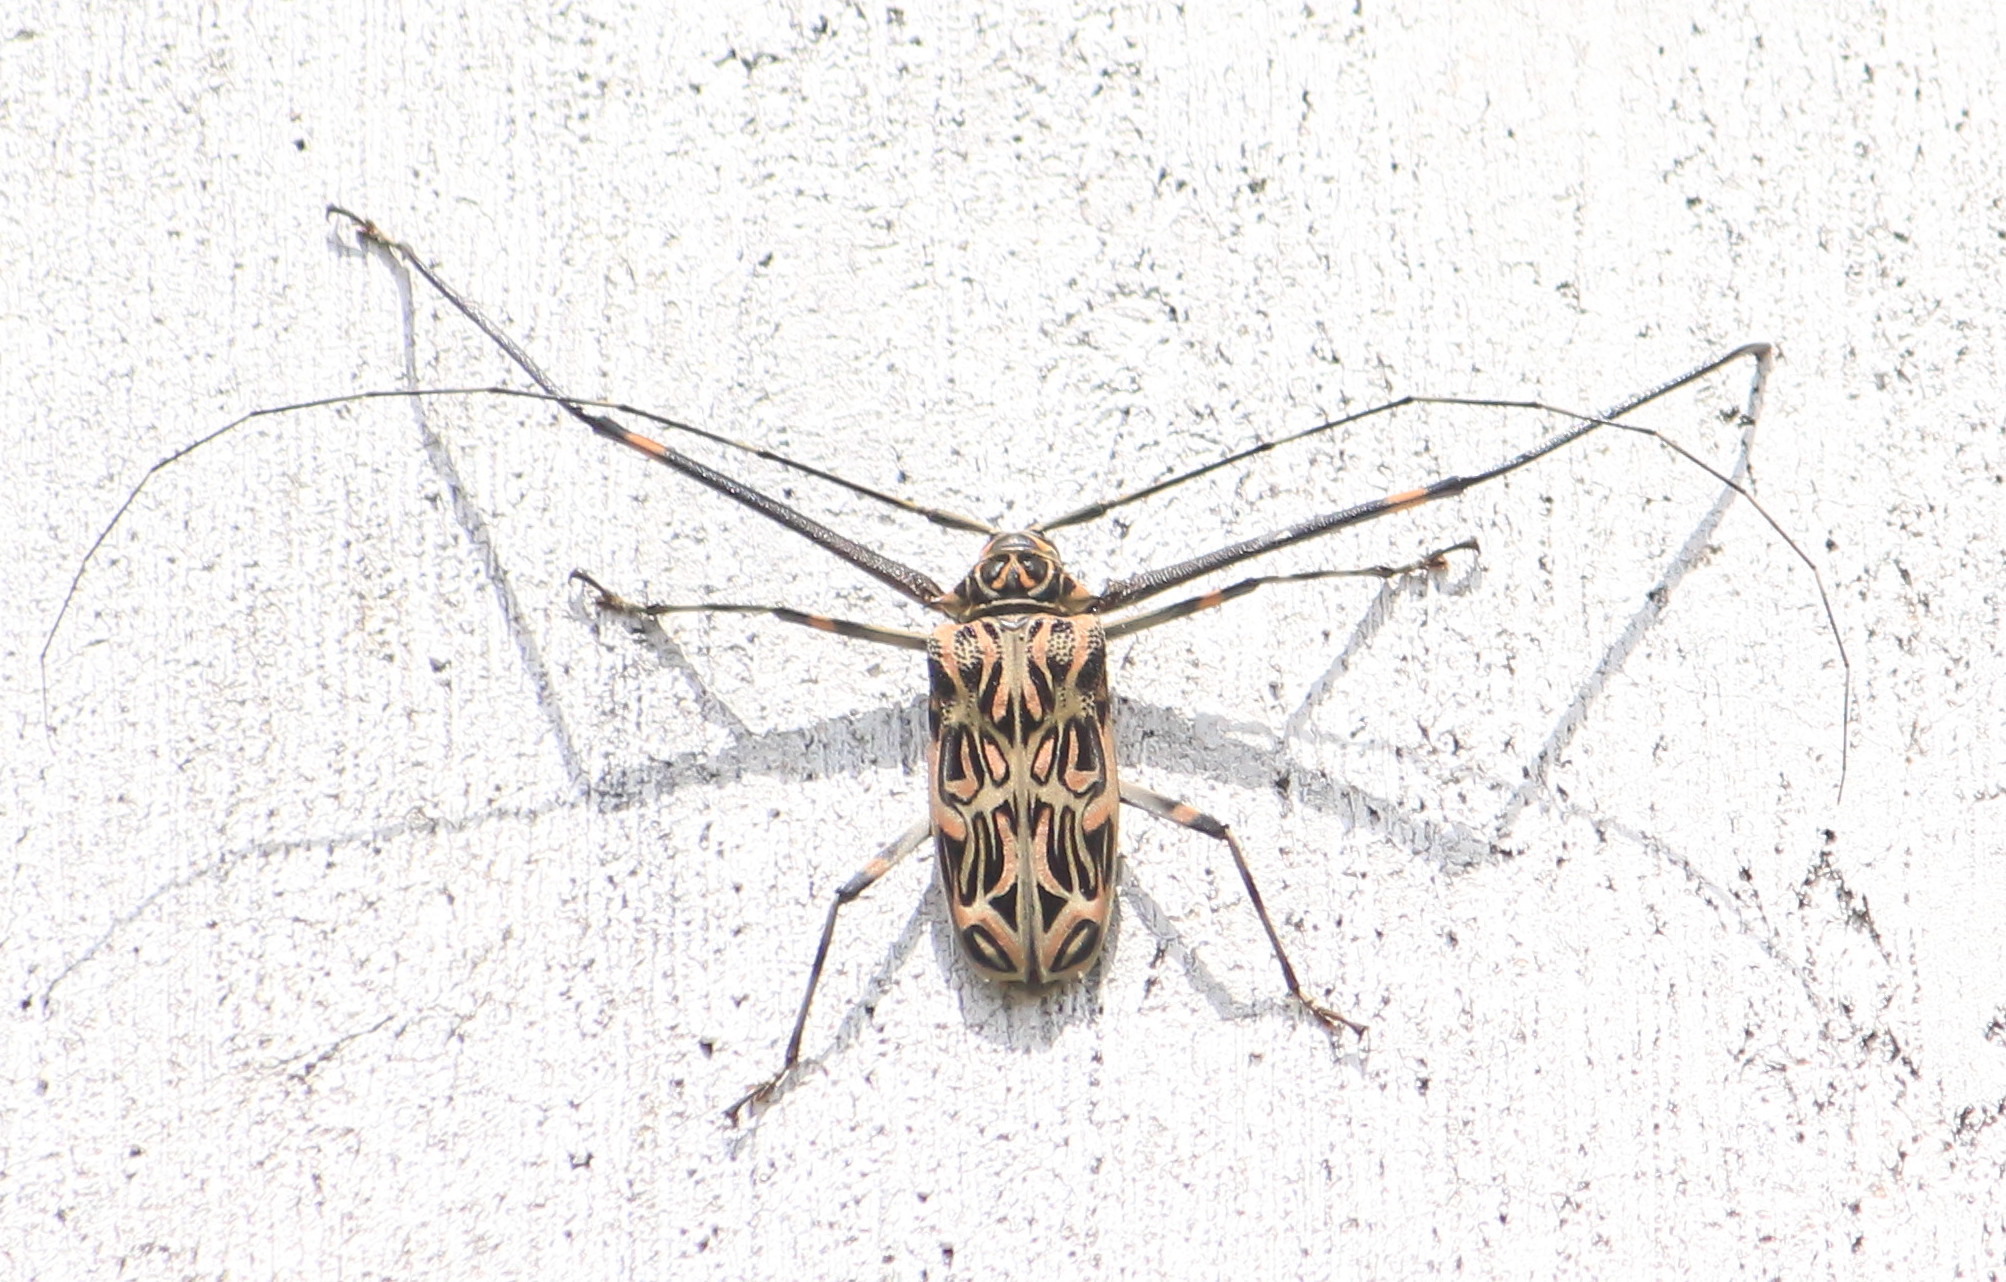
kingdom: Animalia
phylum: Arthropoda
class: Insecta
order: Coleoptera
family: Cerambycidae
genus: Acrocinus
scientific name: Acrocinus longimanus
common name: Arlequin
